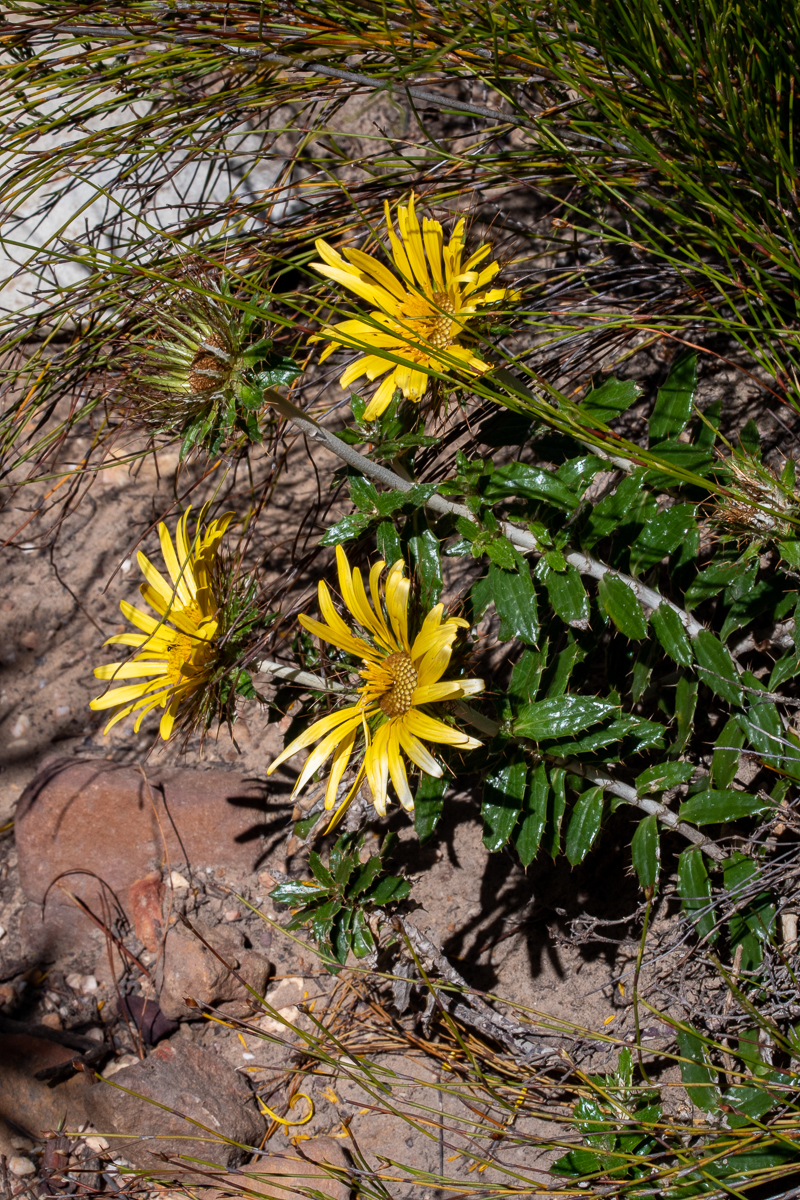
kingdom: Plantae
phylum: Tracheophyta
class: Magnoliopsida
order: Asterales
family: Asteraceae
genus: Berkheya
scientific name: Berkheya barbata
